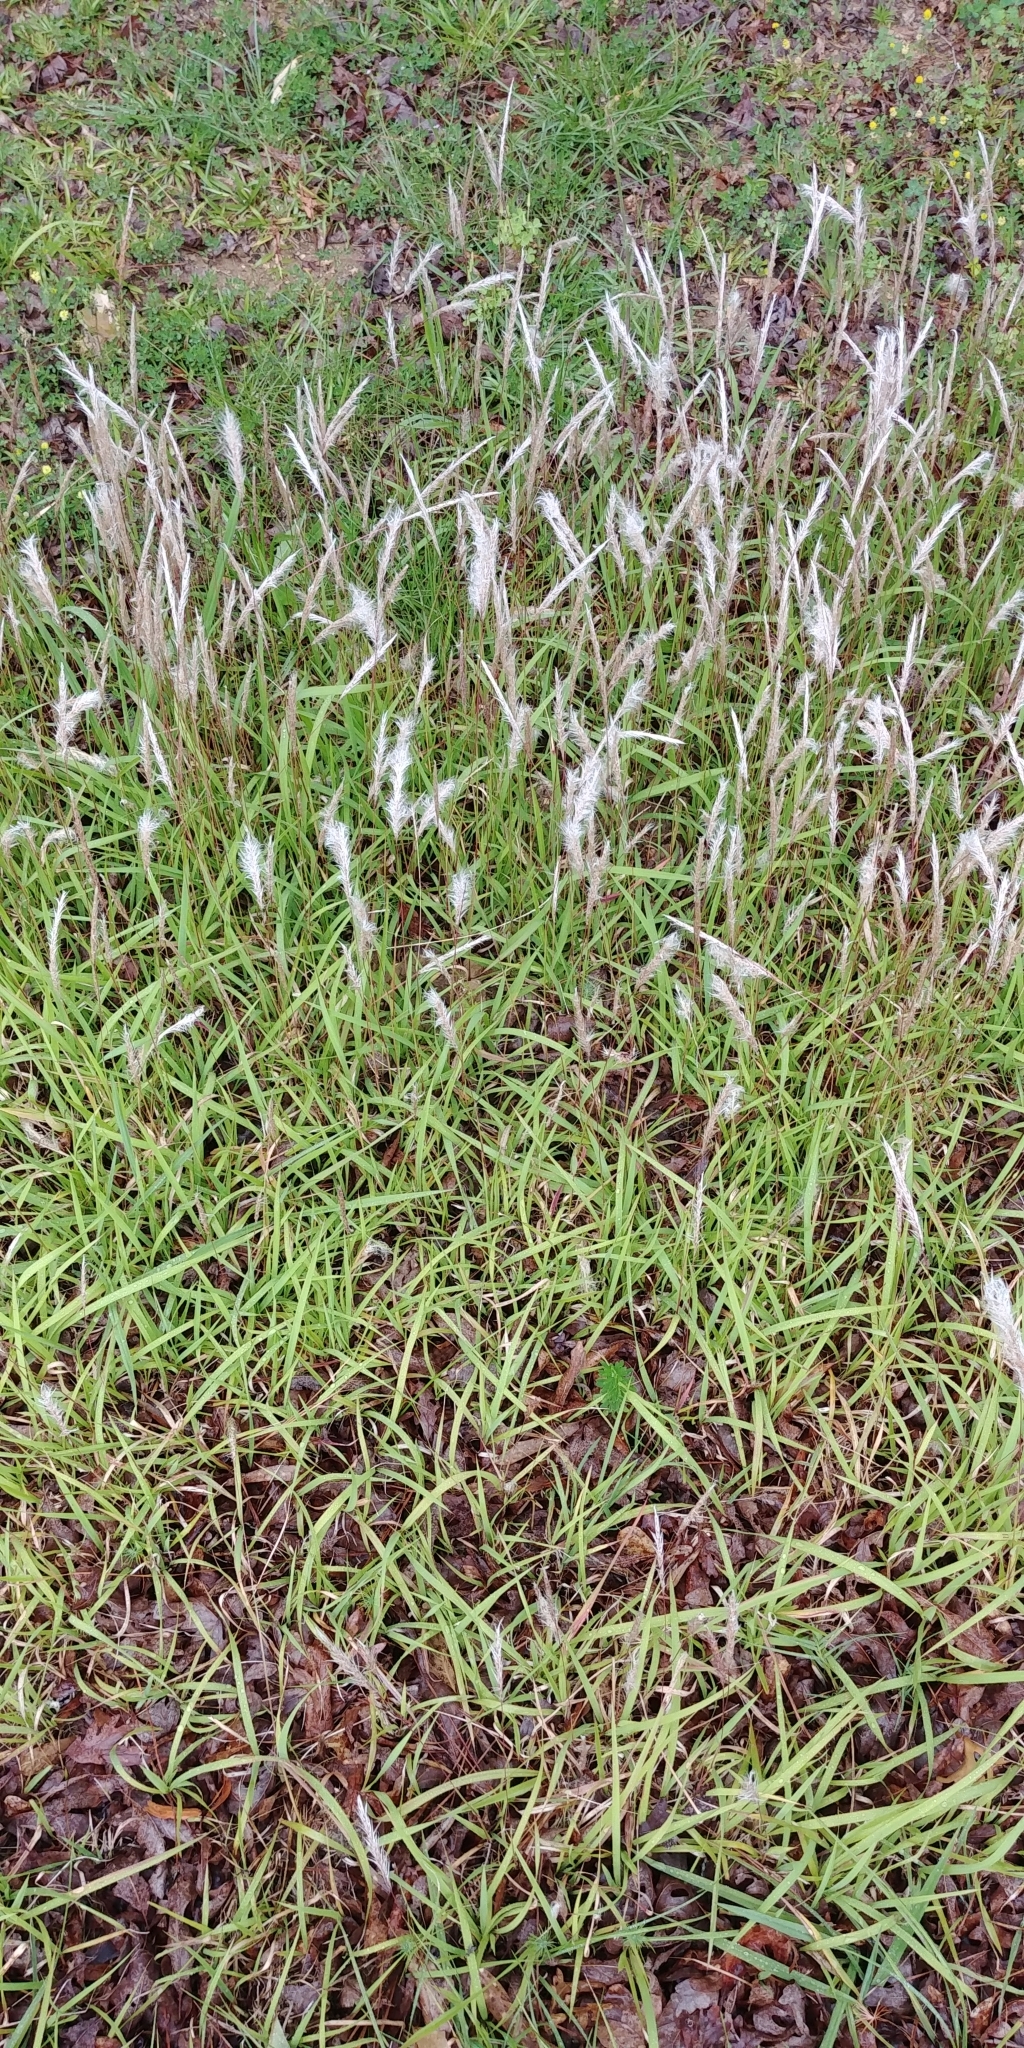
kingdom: Plantae
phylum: Tracheophyta
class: Liliopsida
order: Poales
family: Poaceae
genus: Imperata
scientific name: Imperata cylindrica
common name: Cogongrass
